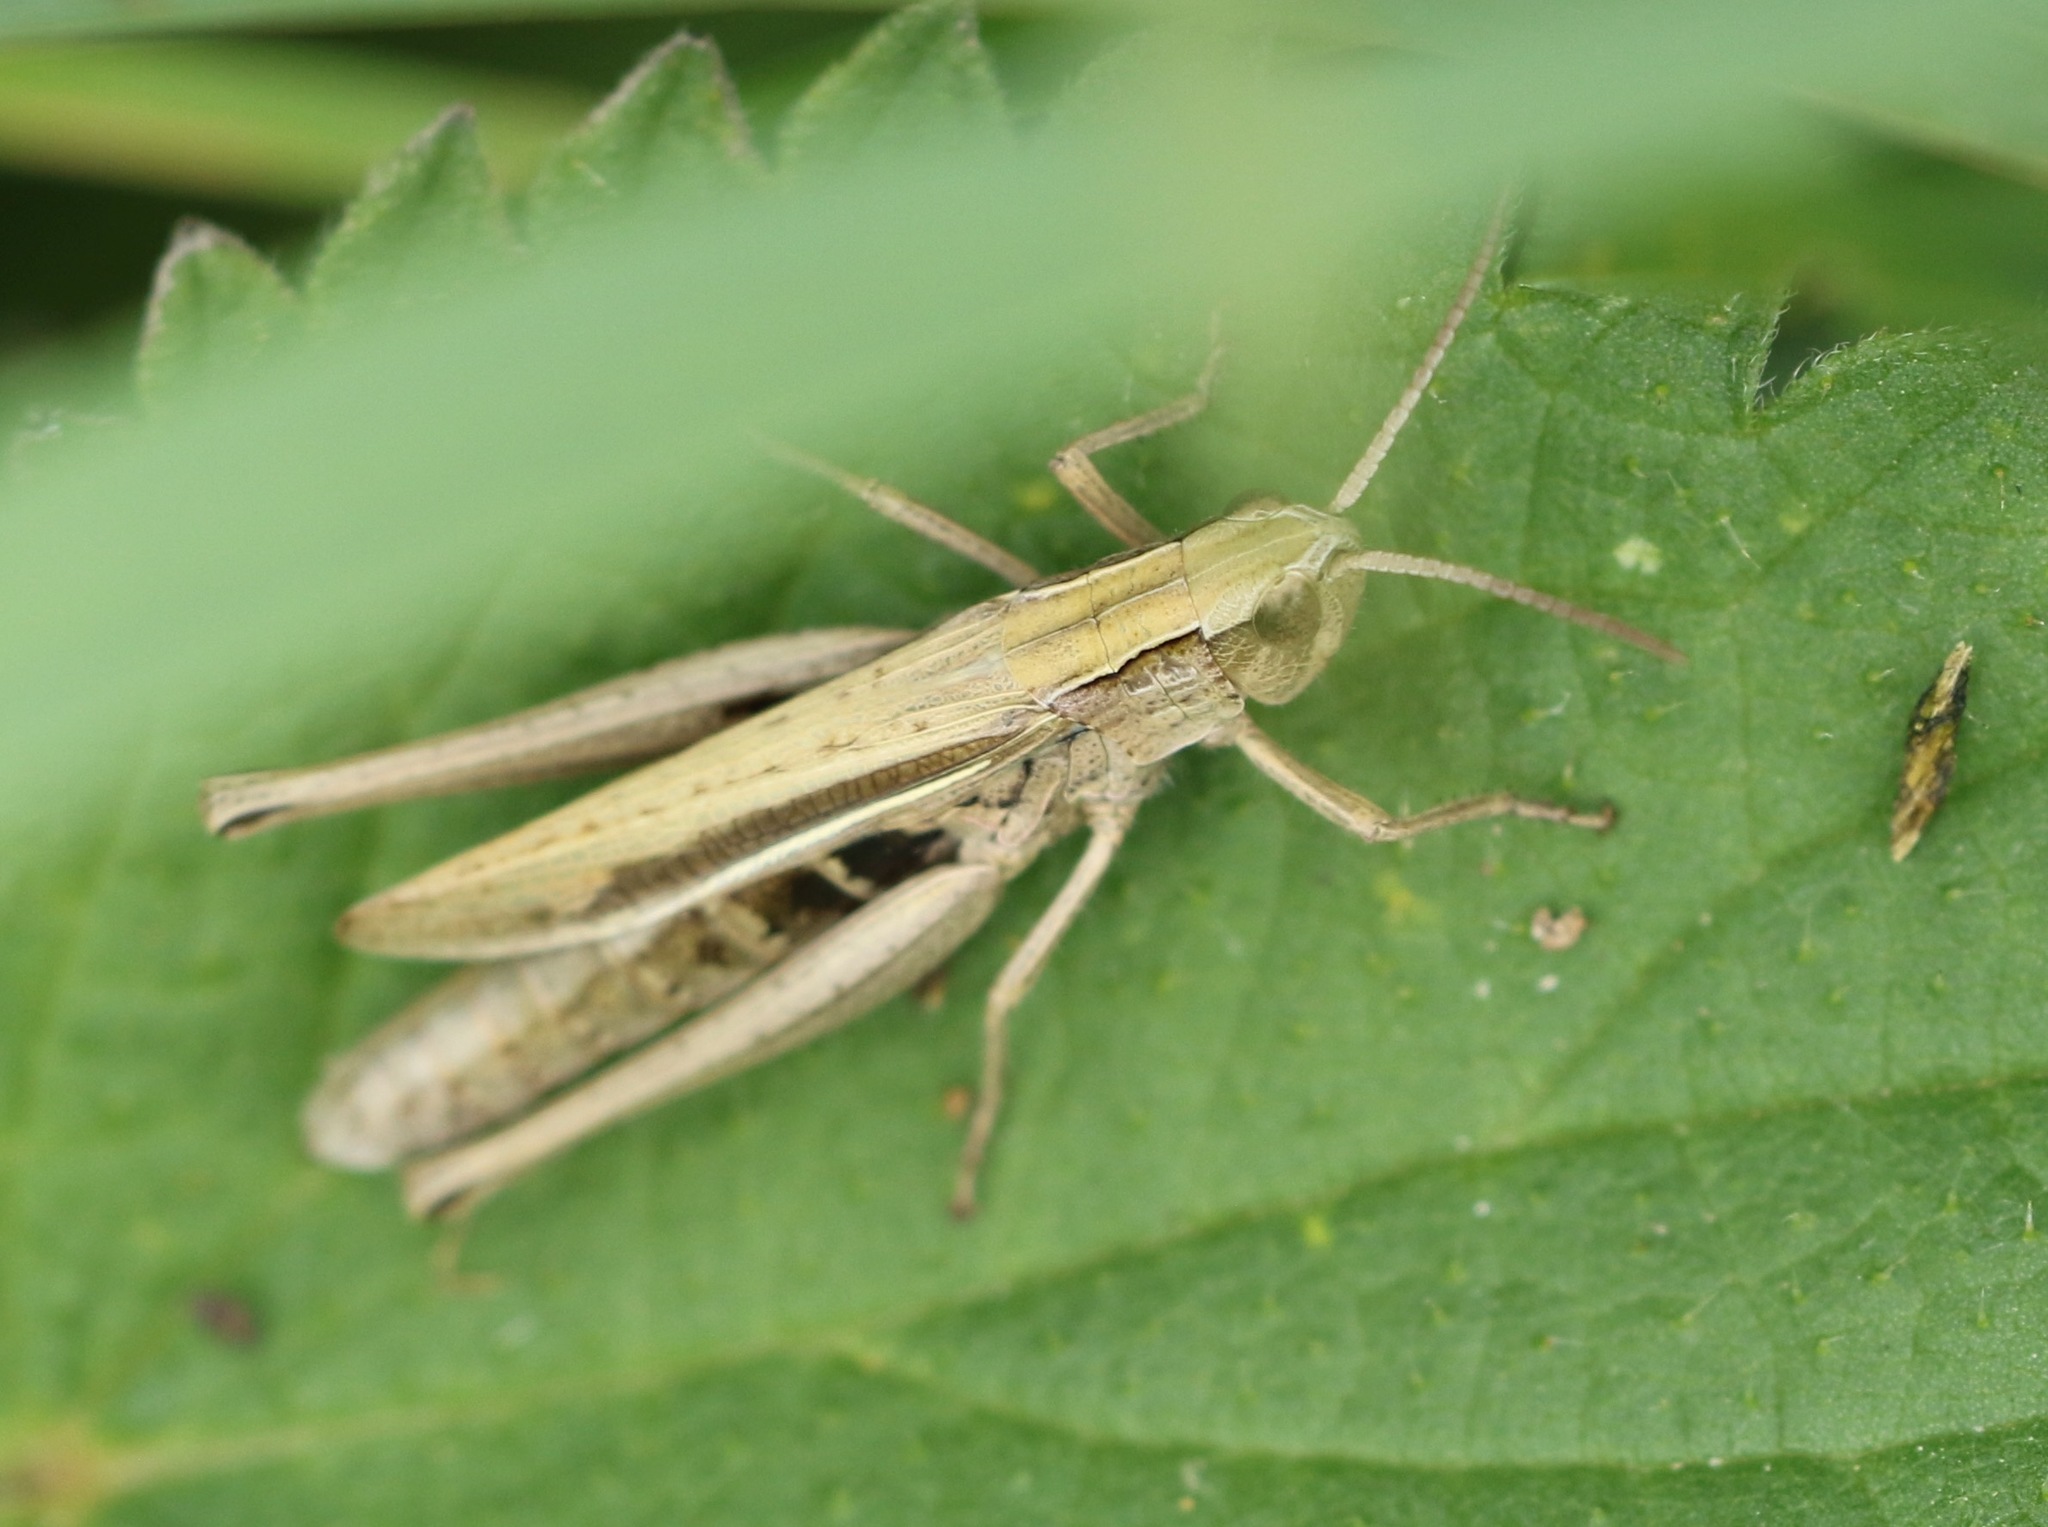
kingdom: Animalia
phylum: Arthropoda
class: Insecta
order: Orthoptera
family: Acrididae
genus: Chorthippus
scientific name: Chorthippus albomarginatus
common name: Lesser marsh grasshopper
